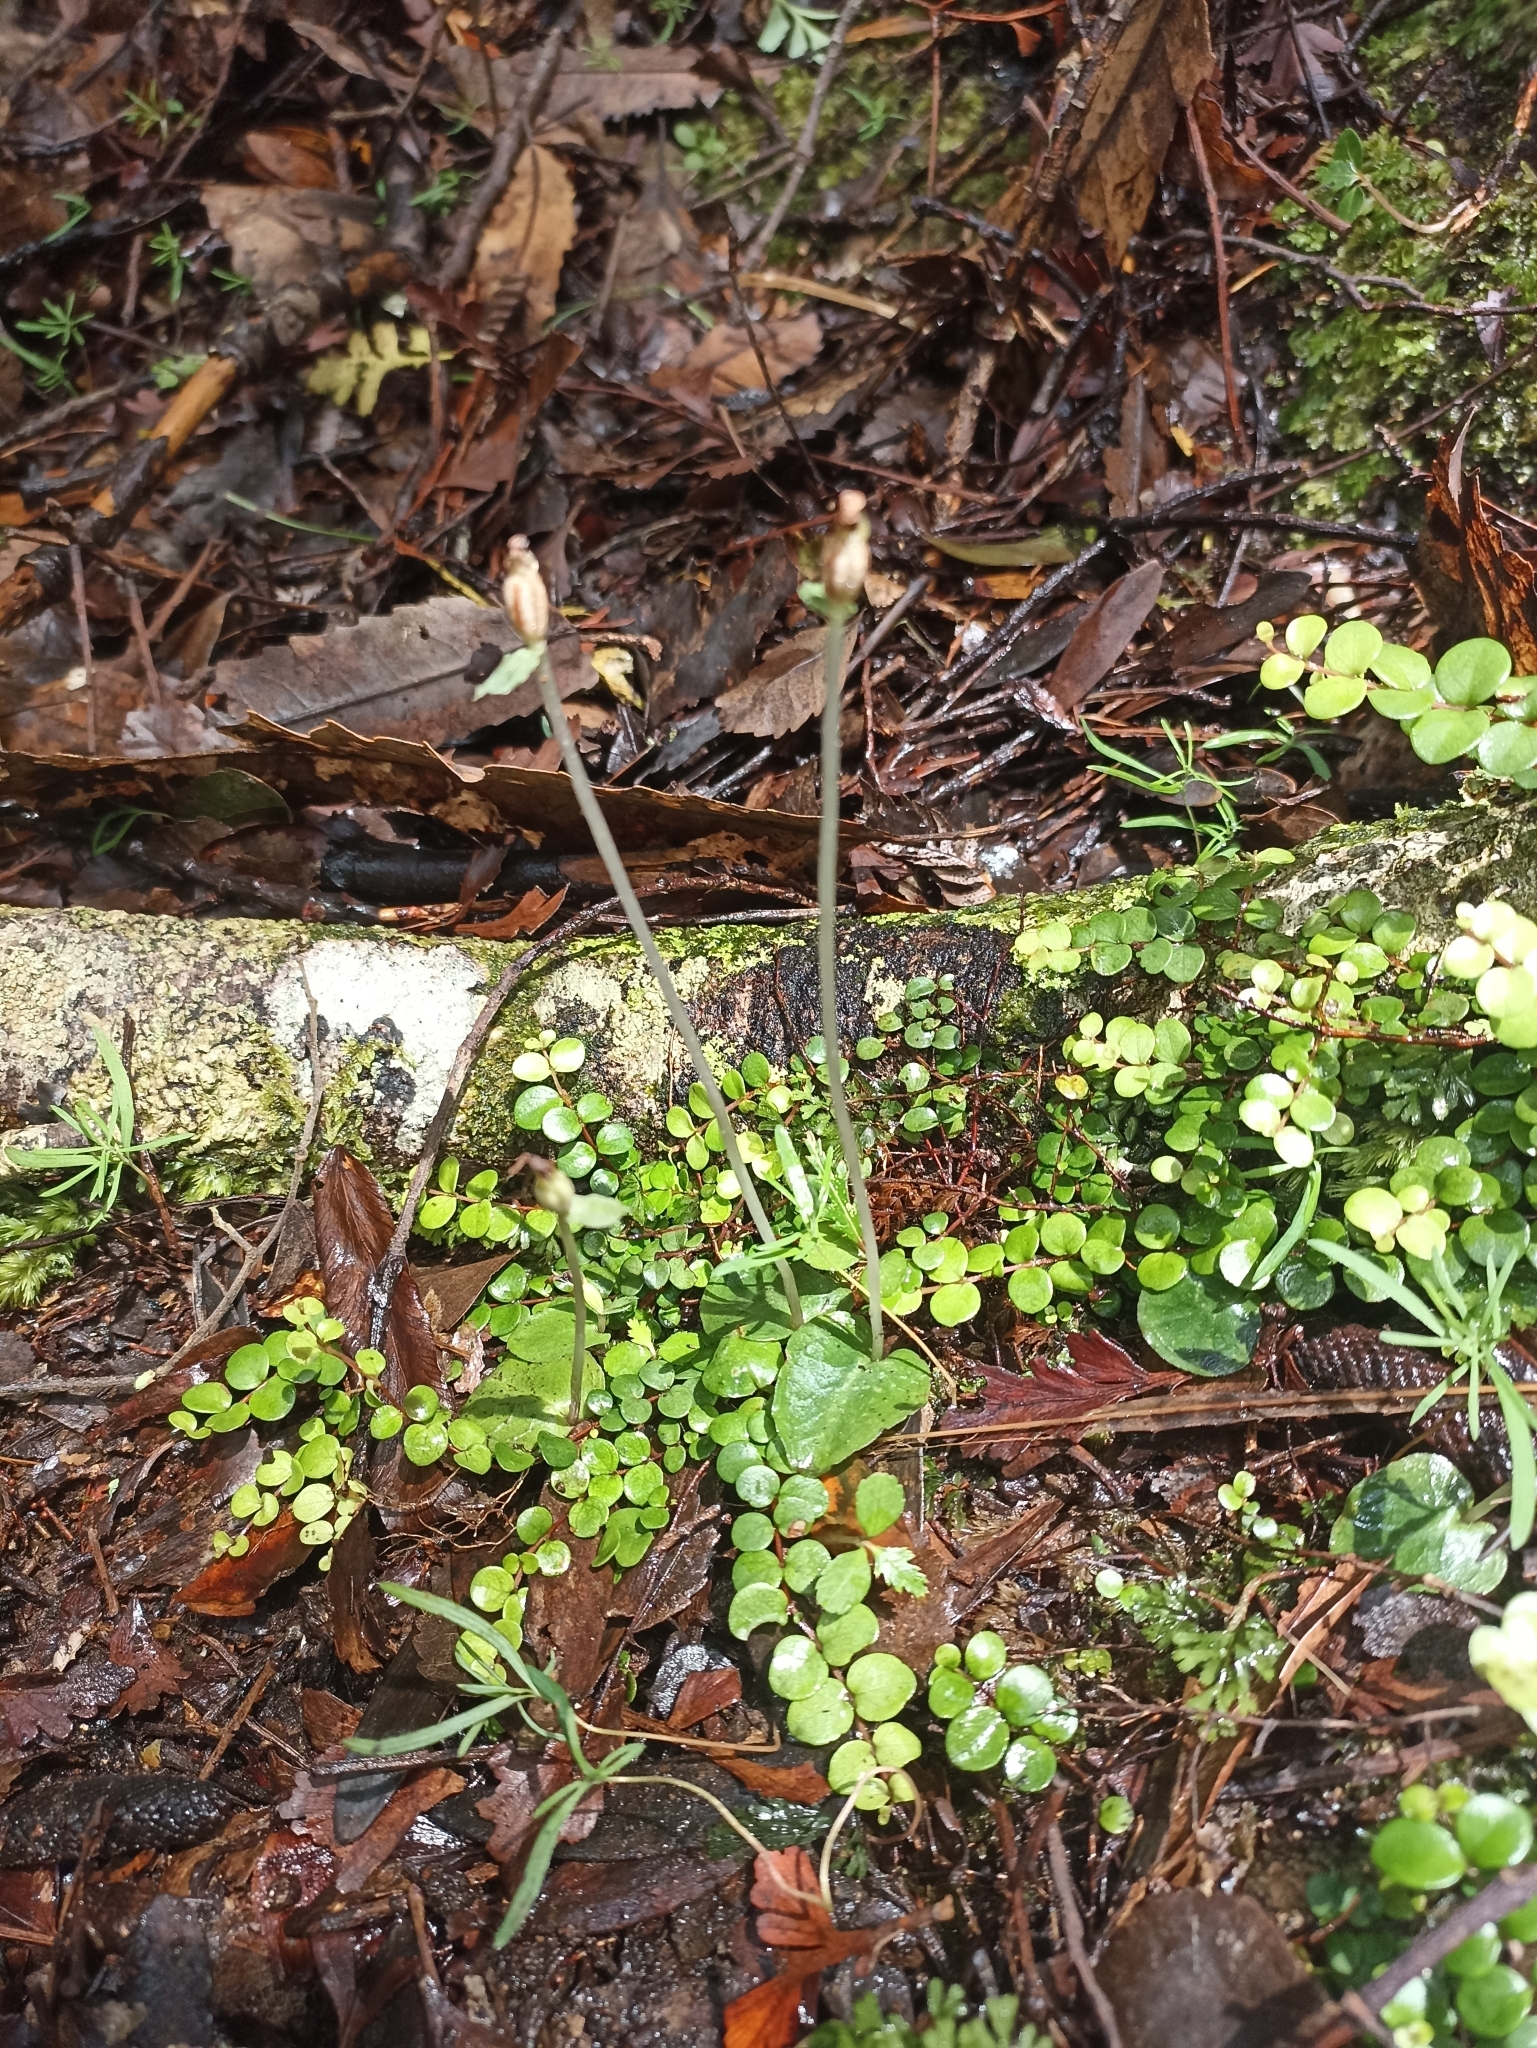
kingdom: Plantae
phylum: Tracheophyta
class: Liliopsida
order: Asparagales
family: Orchidaceae
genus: Corybas
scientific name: Corybas oblongus
